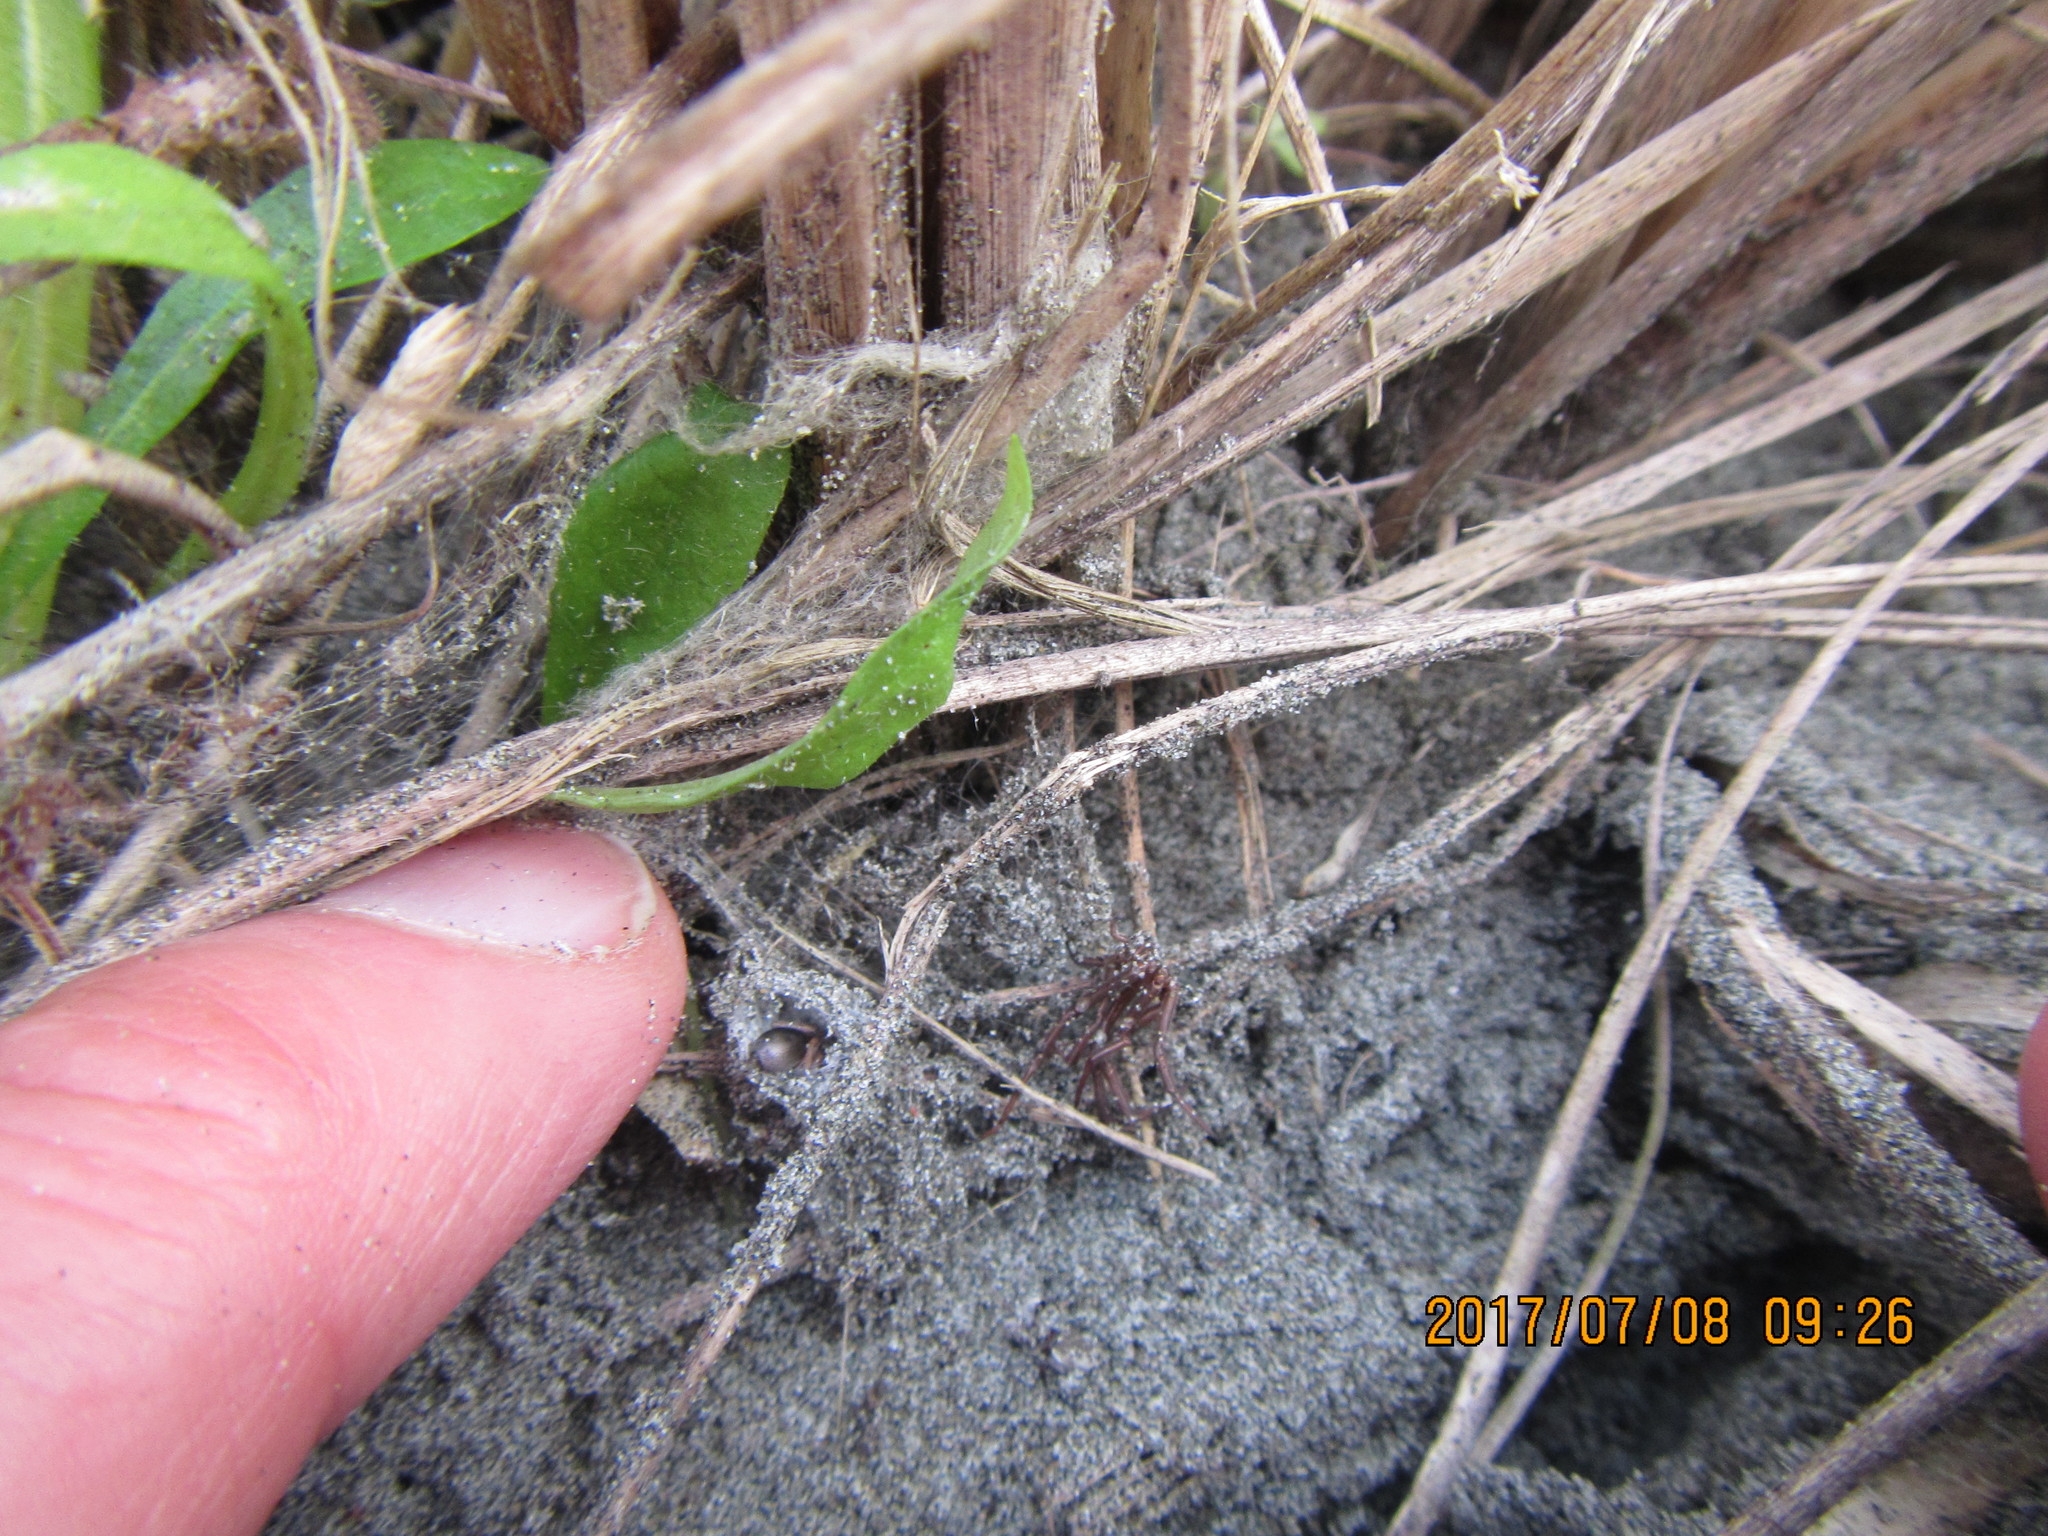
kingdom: Animalia
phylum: Arthropoda
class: Arachnida
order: Araneae
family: Gnaphosidae
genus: Anzacia
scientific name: Anzacia gemmea
